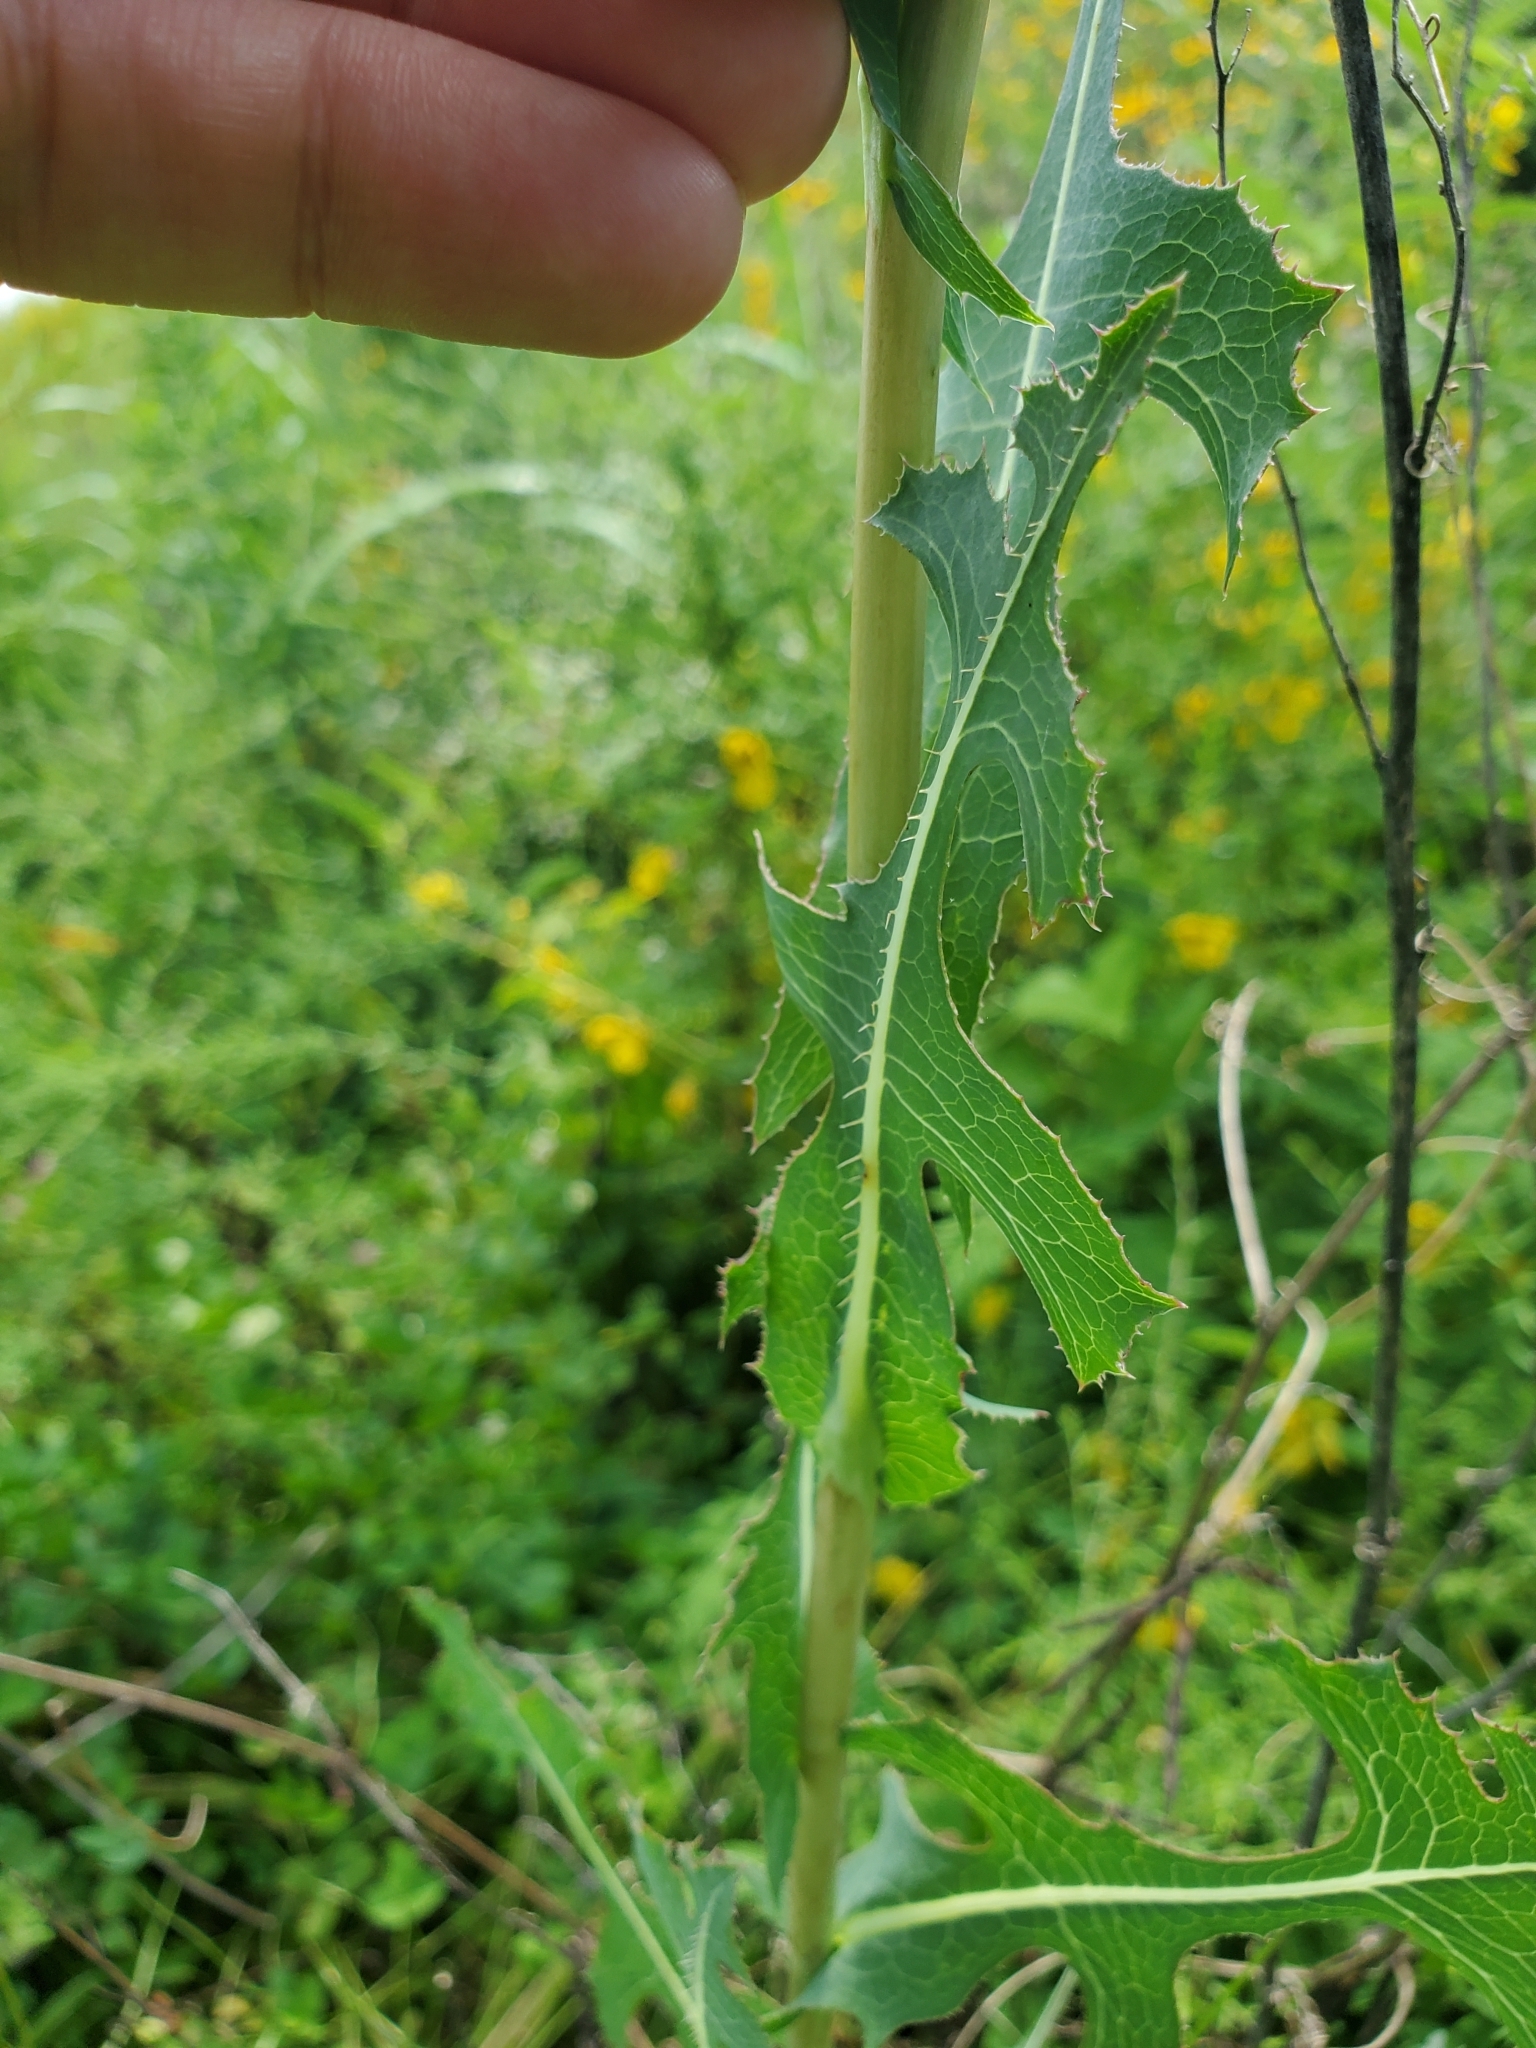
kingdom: Plantae
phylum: Tracheophyta
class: Magnoliopsida
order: Asterales
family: Asteraceae
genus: Lactuca
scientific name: Lactuca serriola
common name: Prickly lettuce
